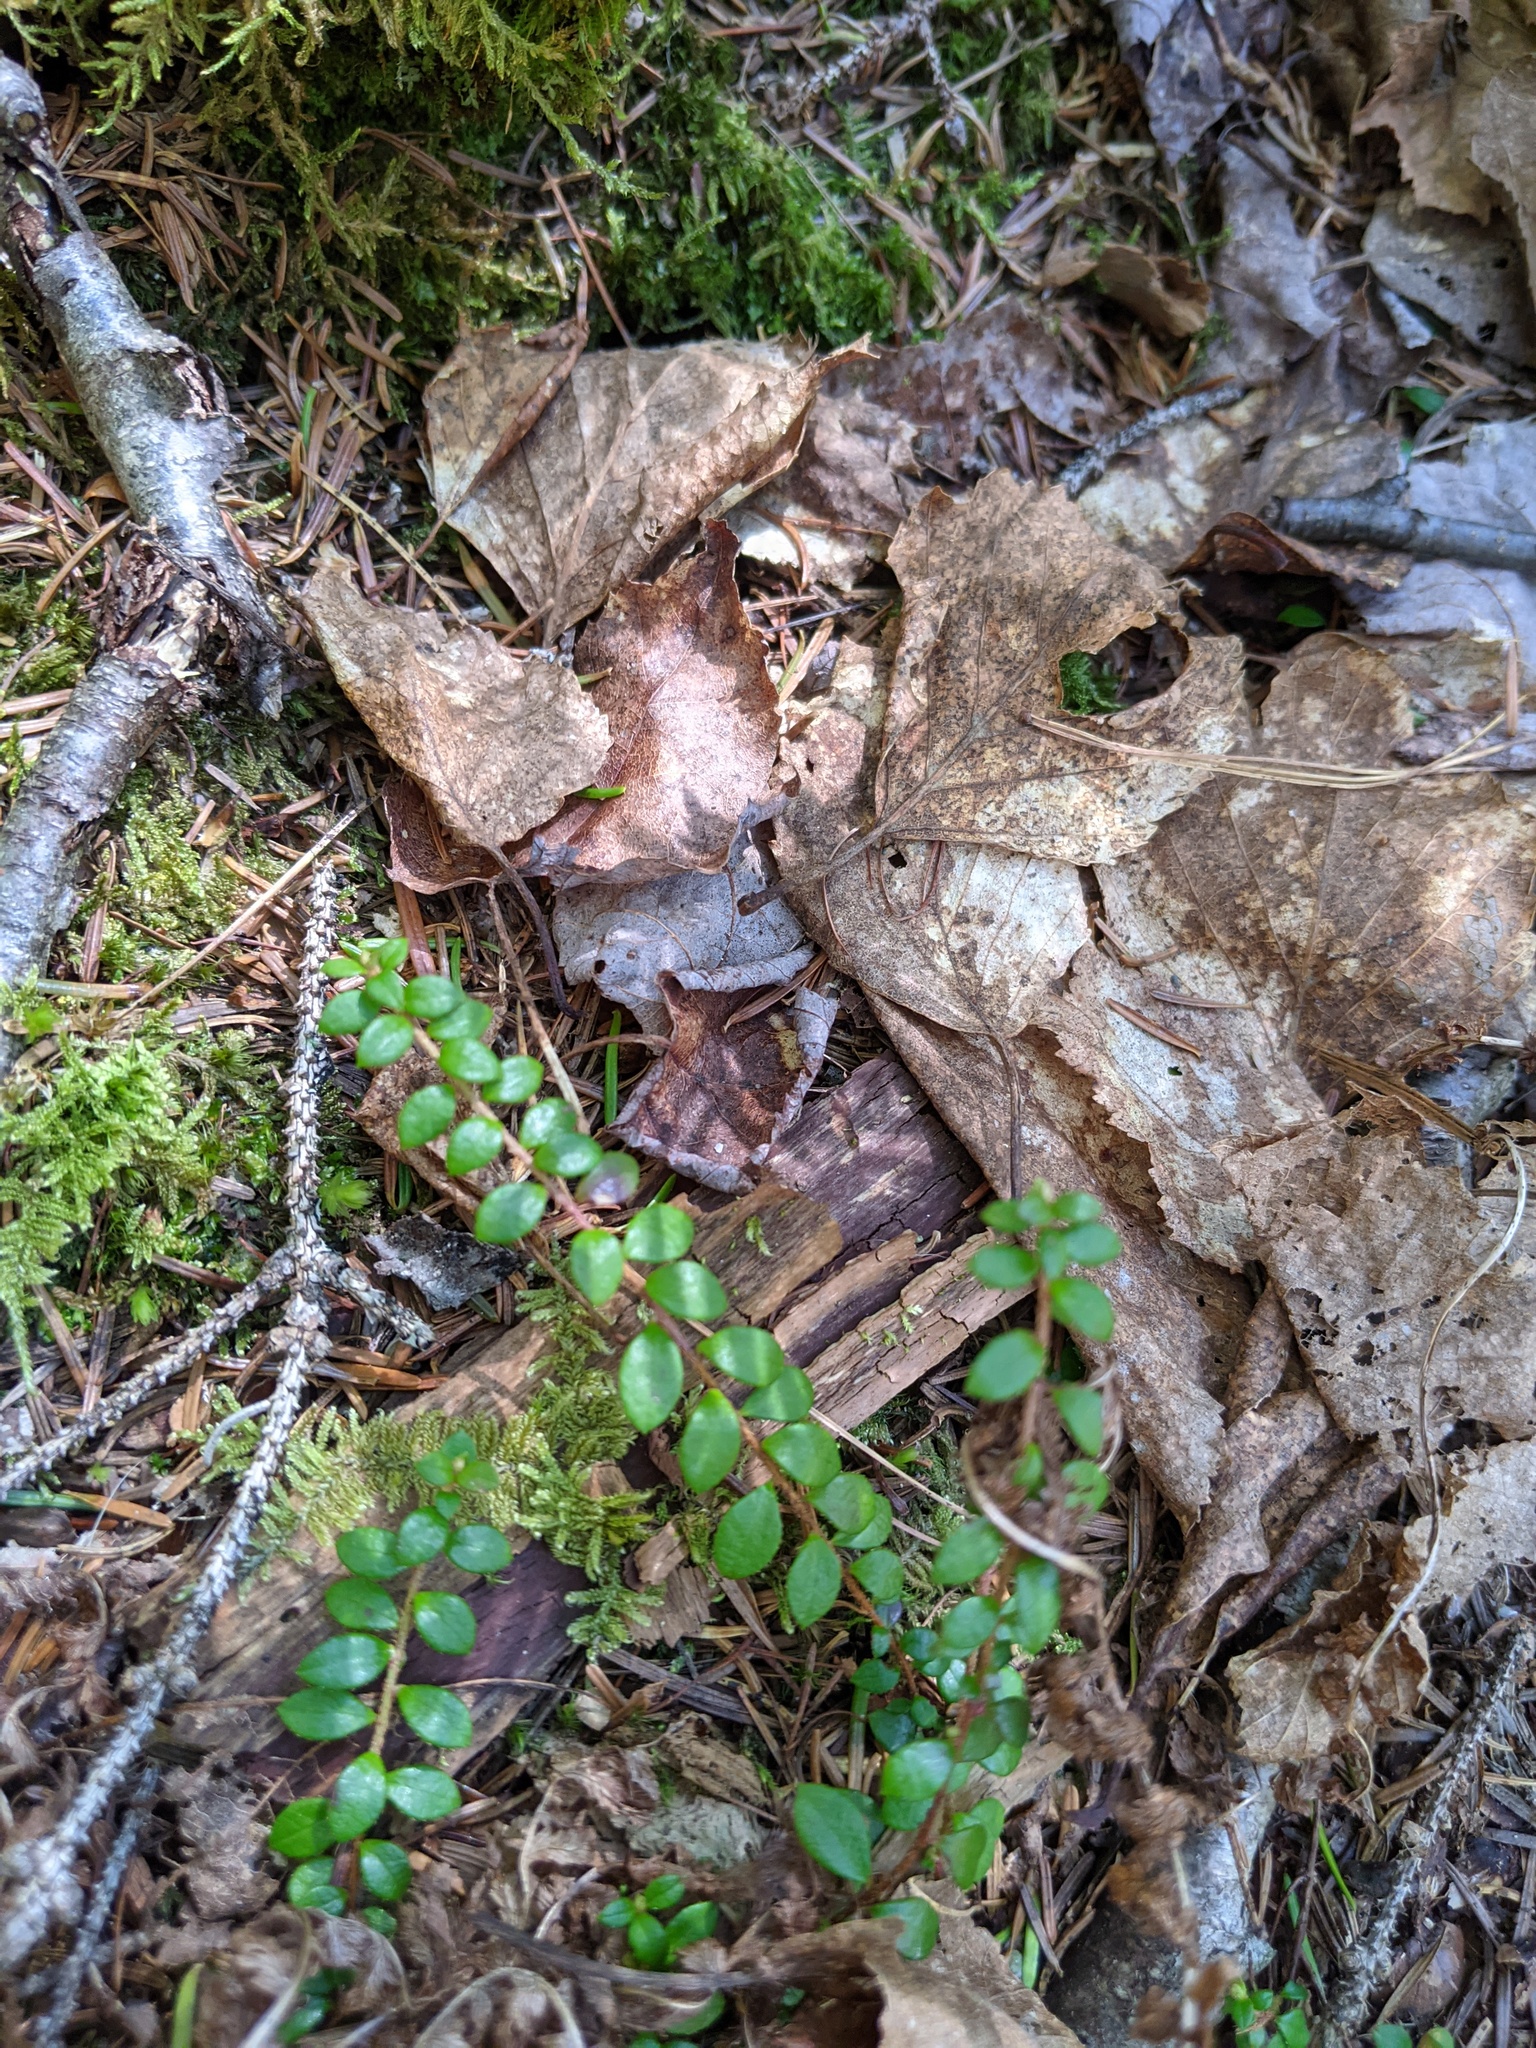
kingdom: Plantae
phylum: Tracheophyta
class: Magnoliopsida
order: Ericales
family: Ericaceae
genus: Gaultheria
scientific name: Gaultheria hispidula
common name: Cancer wintergreen
